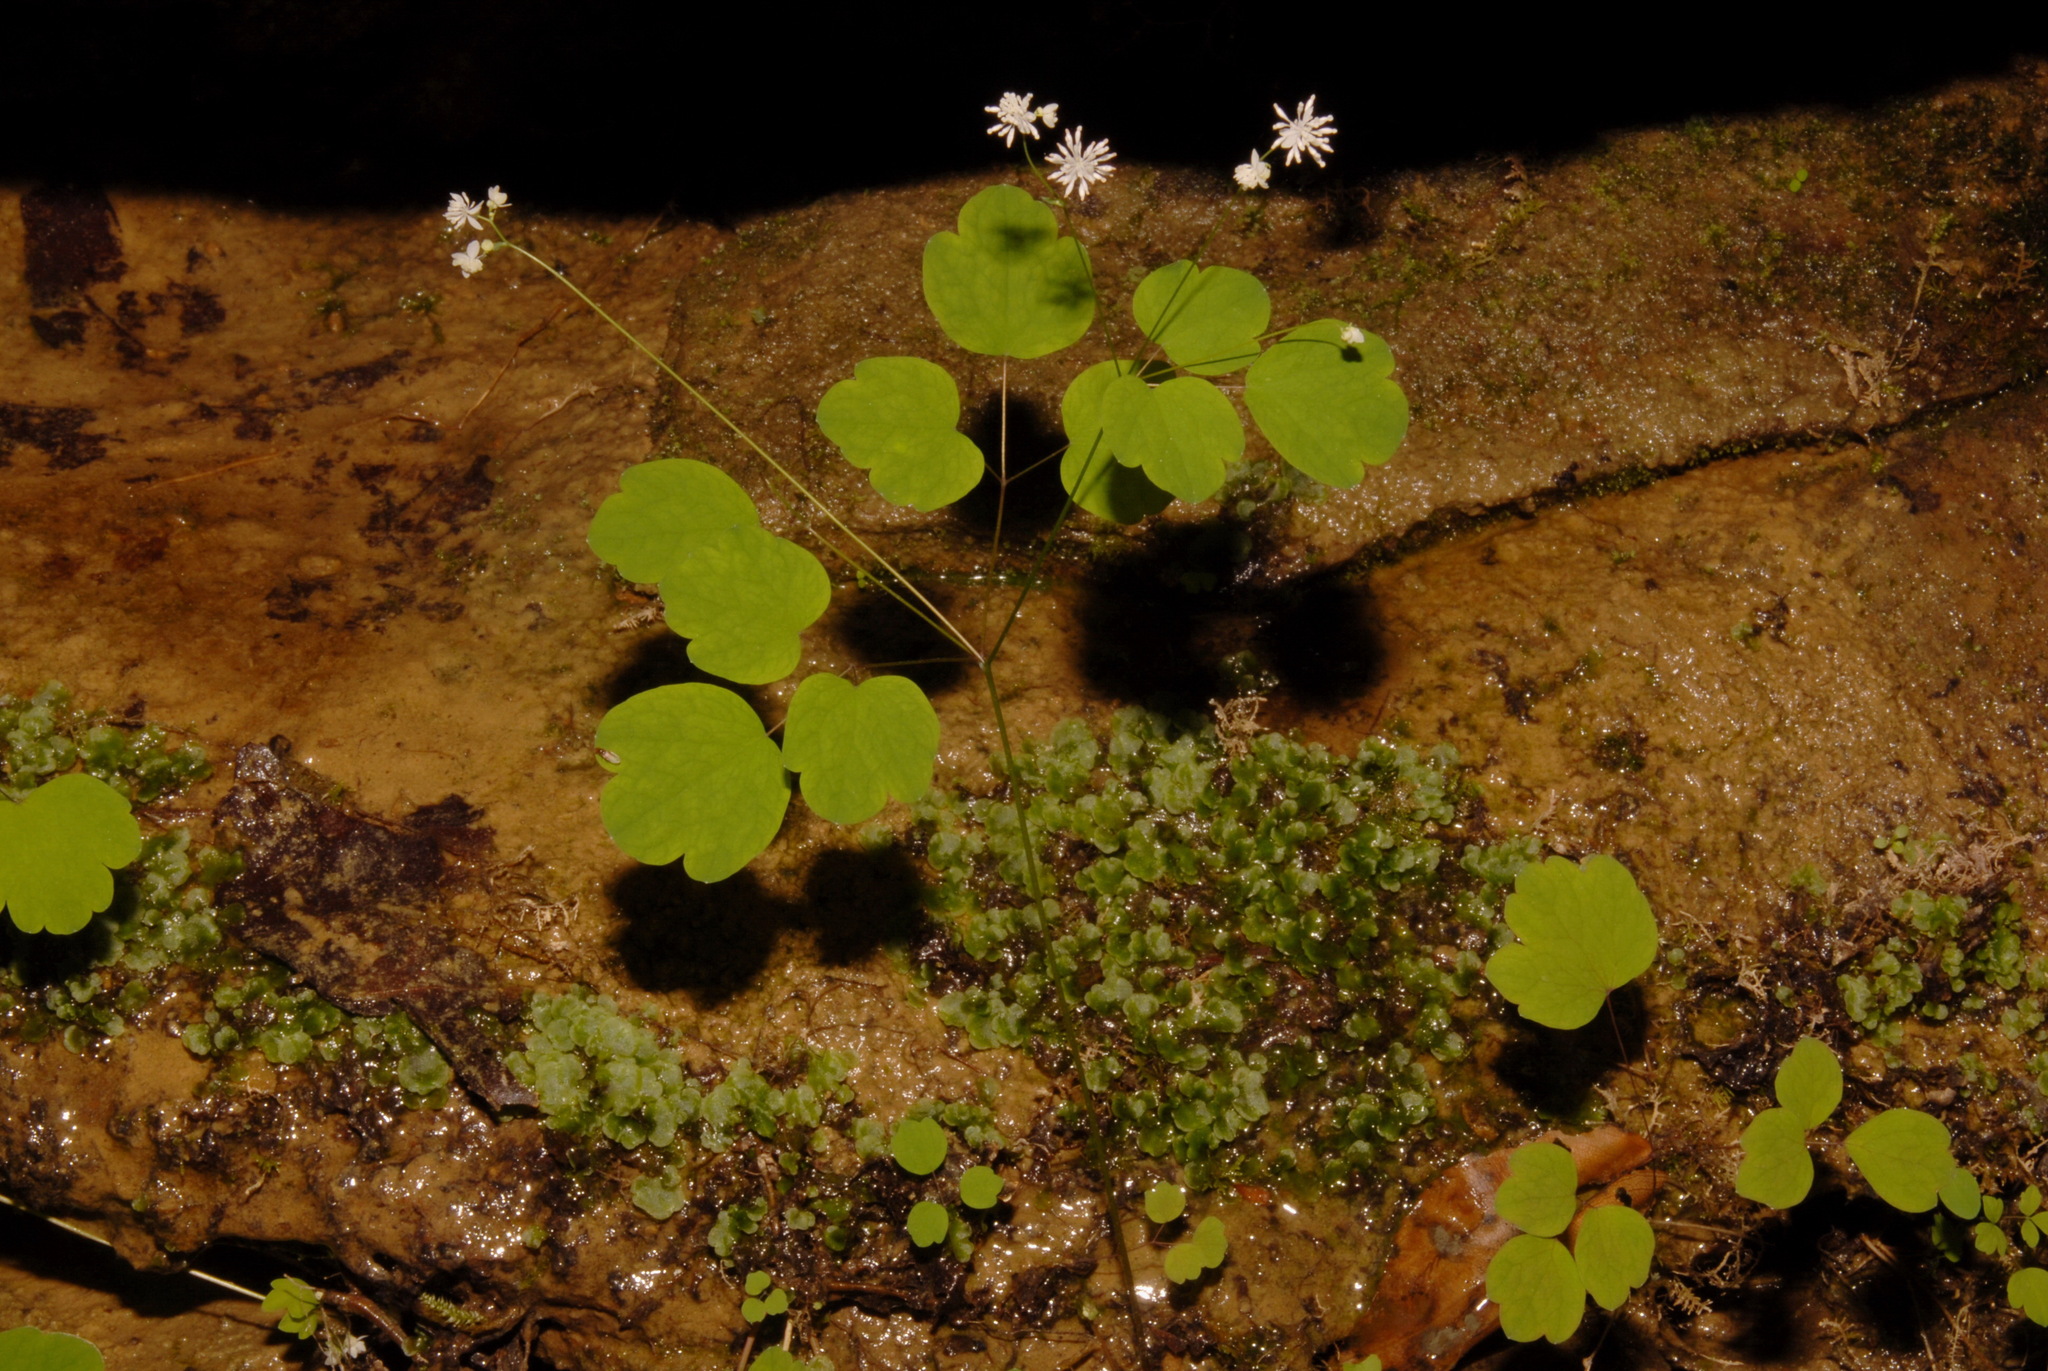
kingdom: Plantae
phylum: Tracheophyta
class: Magnoliopsida
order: Ranunculales
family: Ranunculaceae
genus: Thalictrum
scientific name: Thalictrum mirabile
